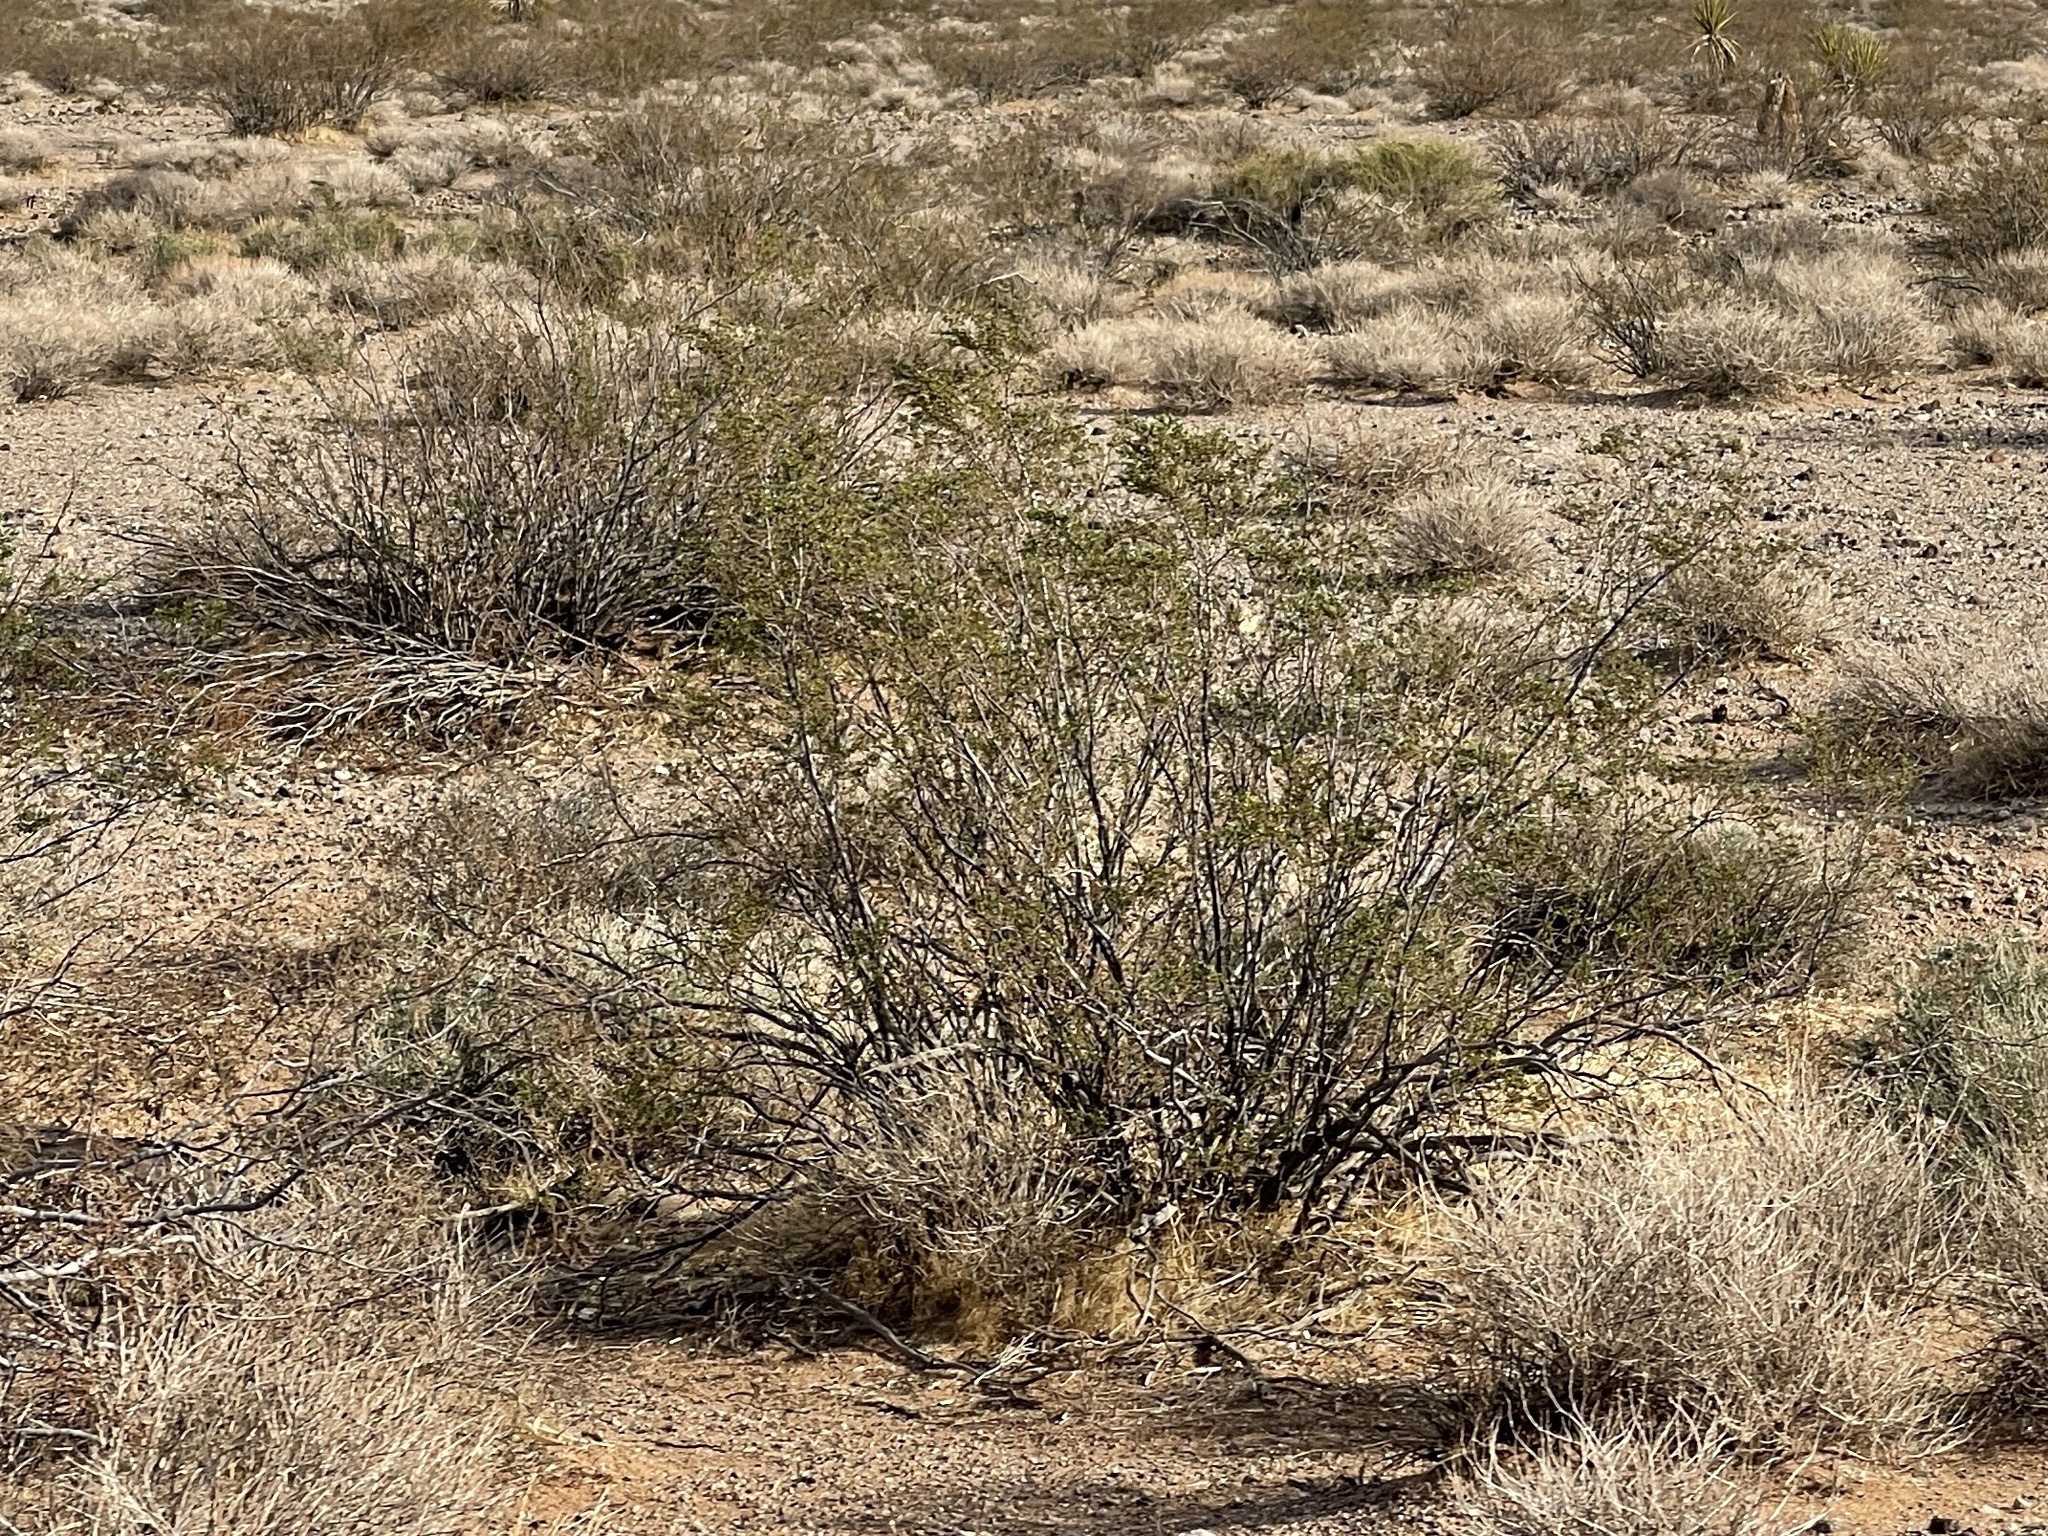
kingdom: Plantae
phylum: Tracheophyta
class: Magnoliopsida
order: Zygophyllales
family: Zygophyllaceae
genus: Larrea
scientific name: Larrea tridentata
